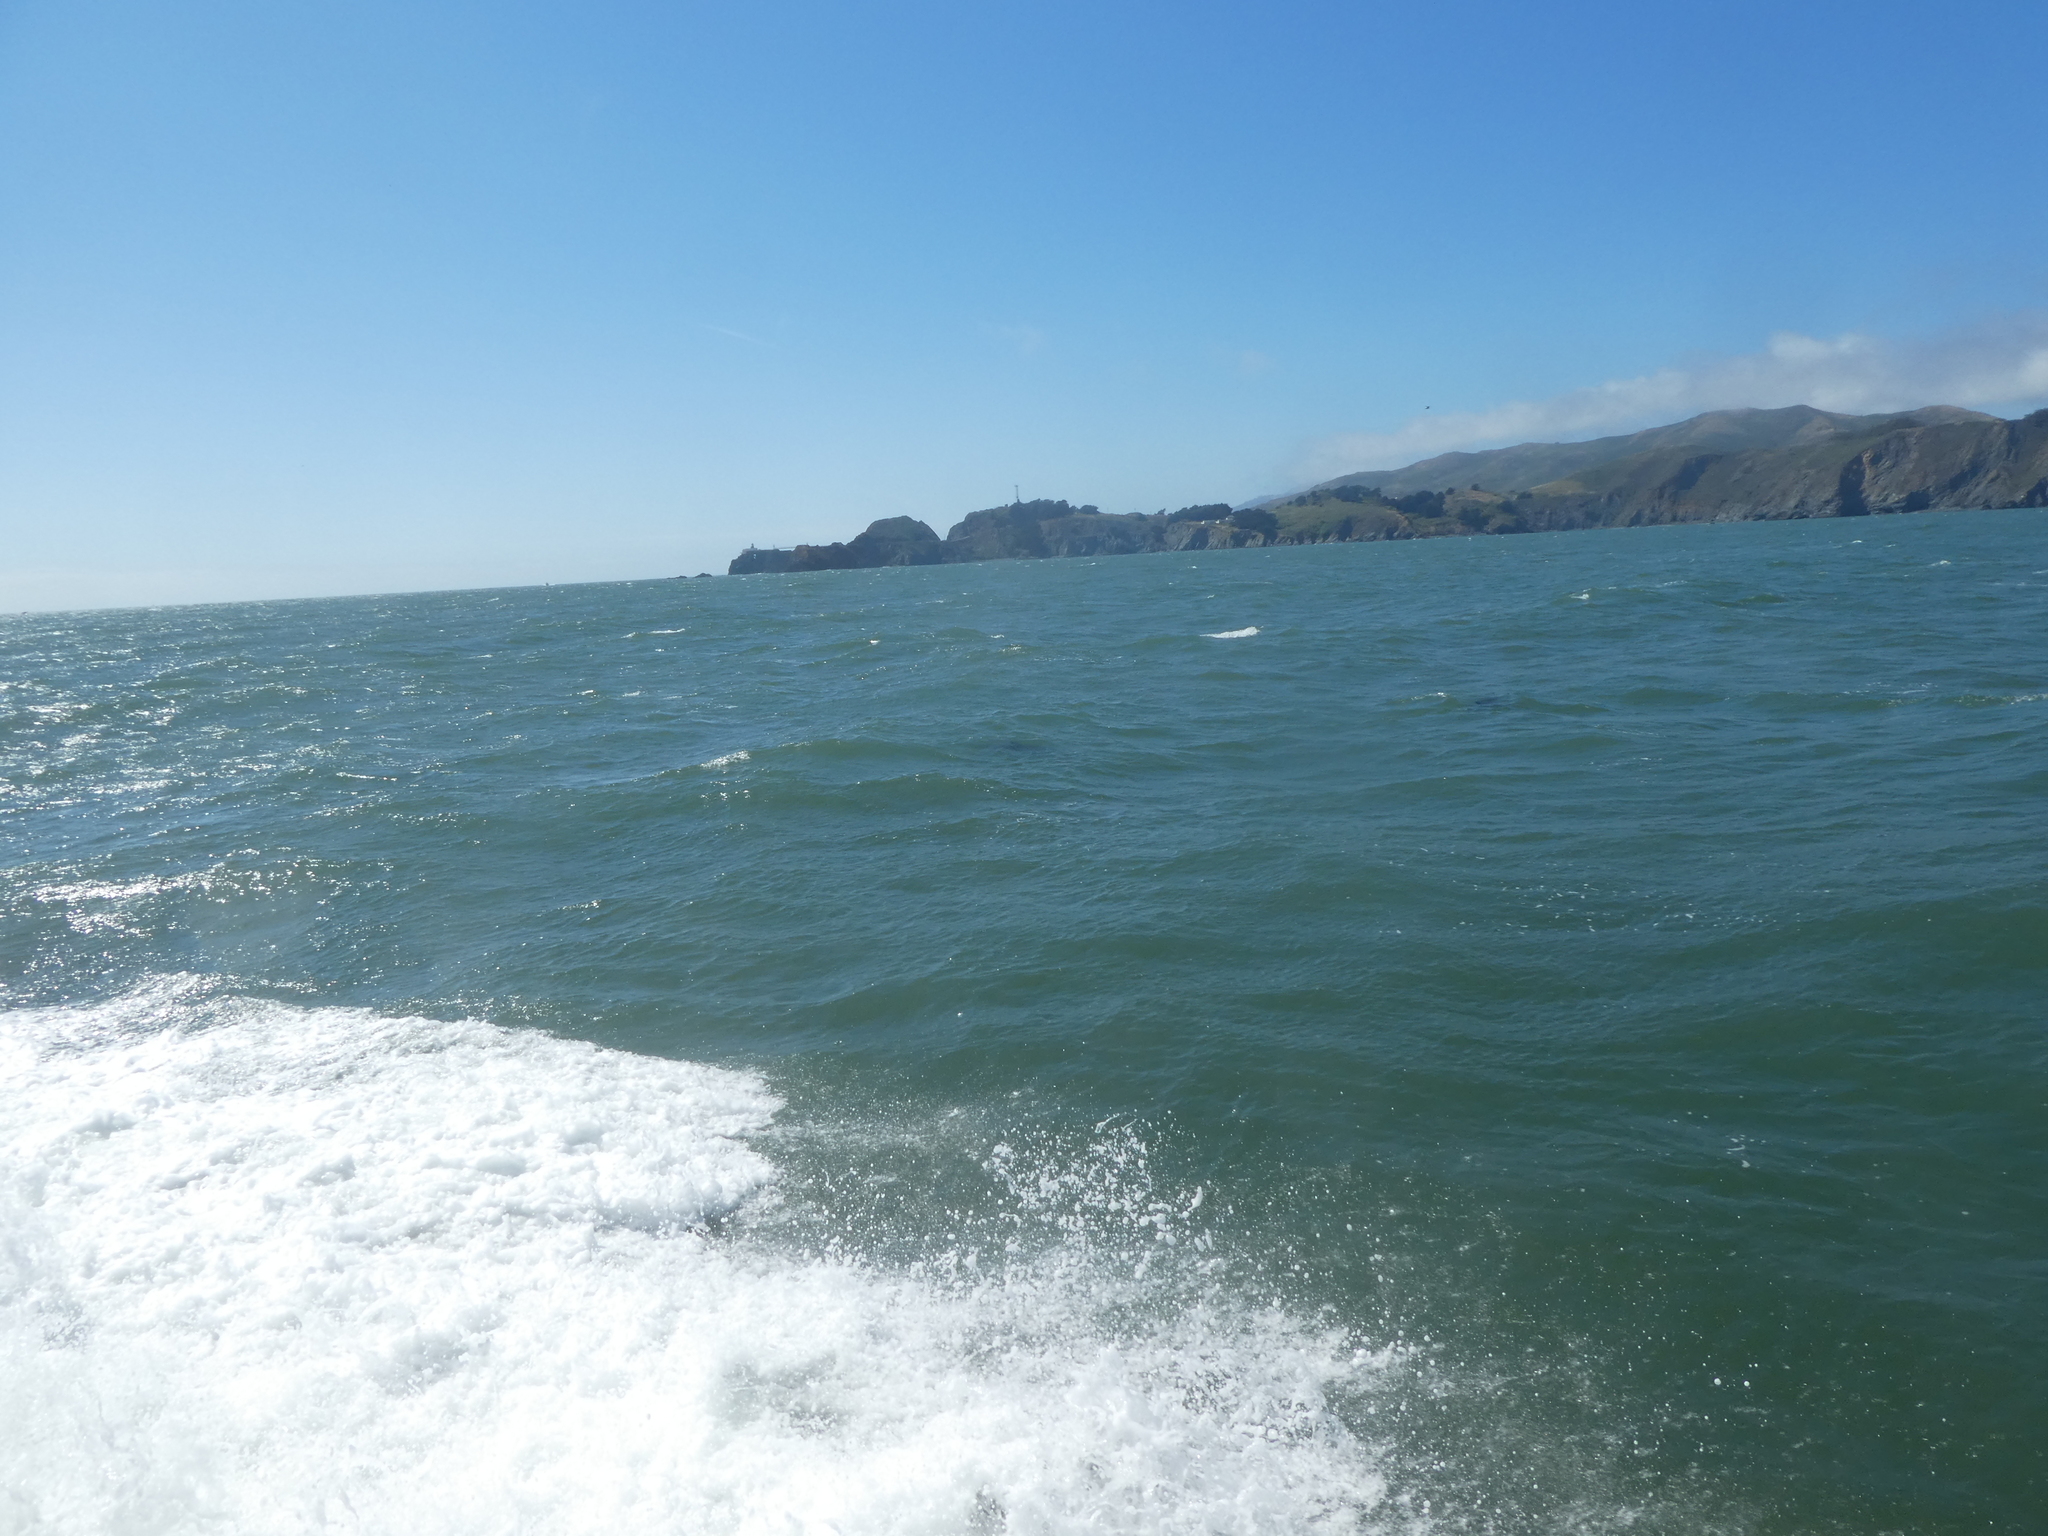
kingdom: Animalia
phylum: Chordata
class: Mammalia
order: Cetacea
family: Phocoenidae
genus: Phocoena
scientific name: Phocoena phocoena
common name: Harbor porpoise
